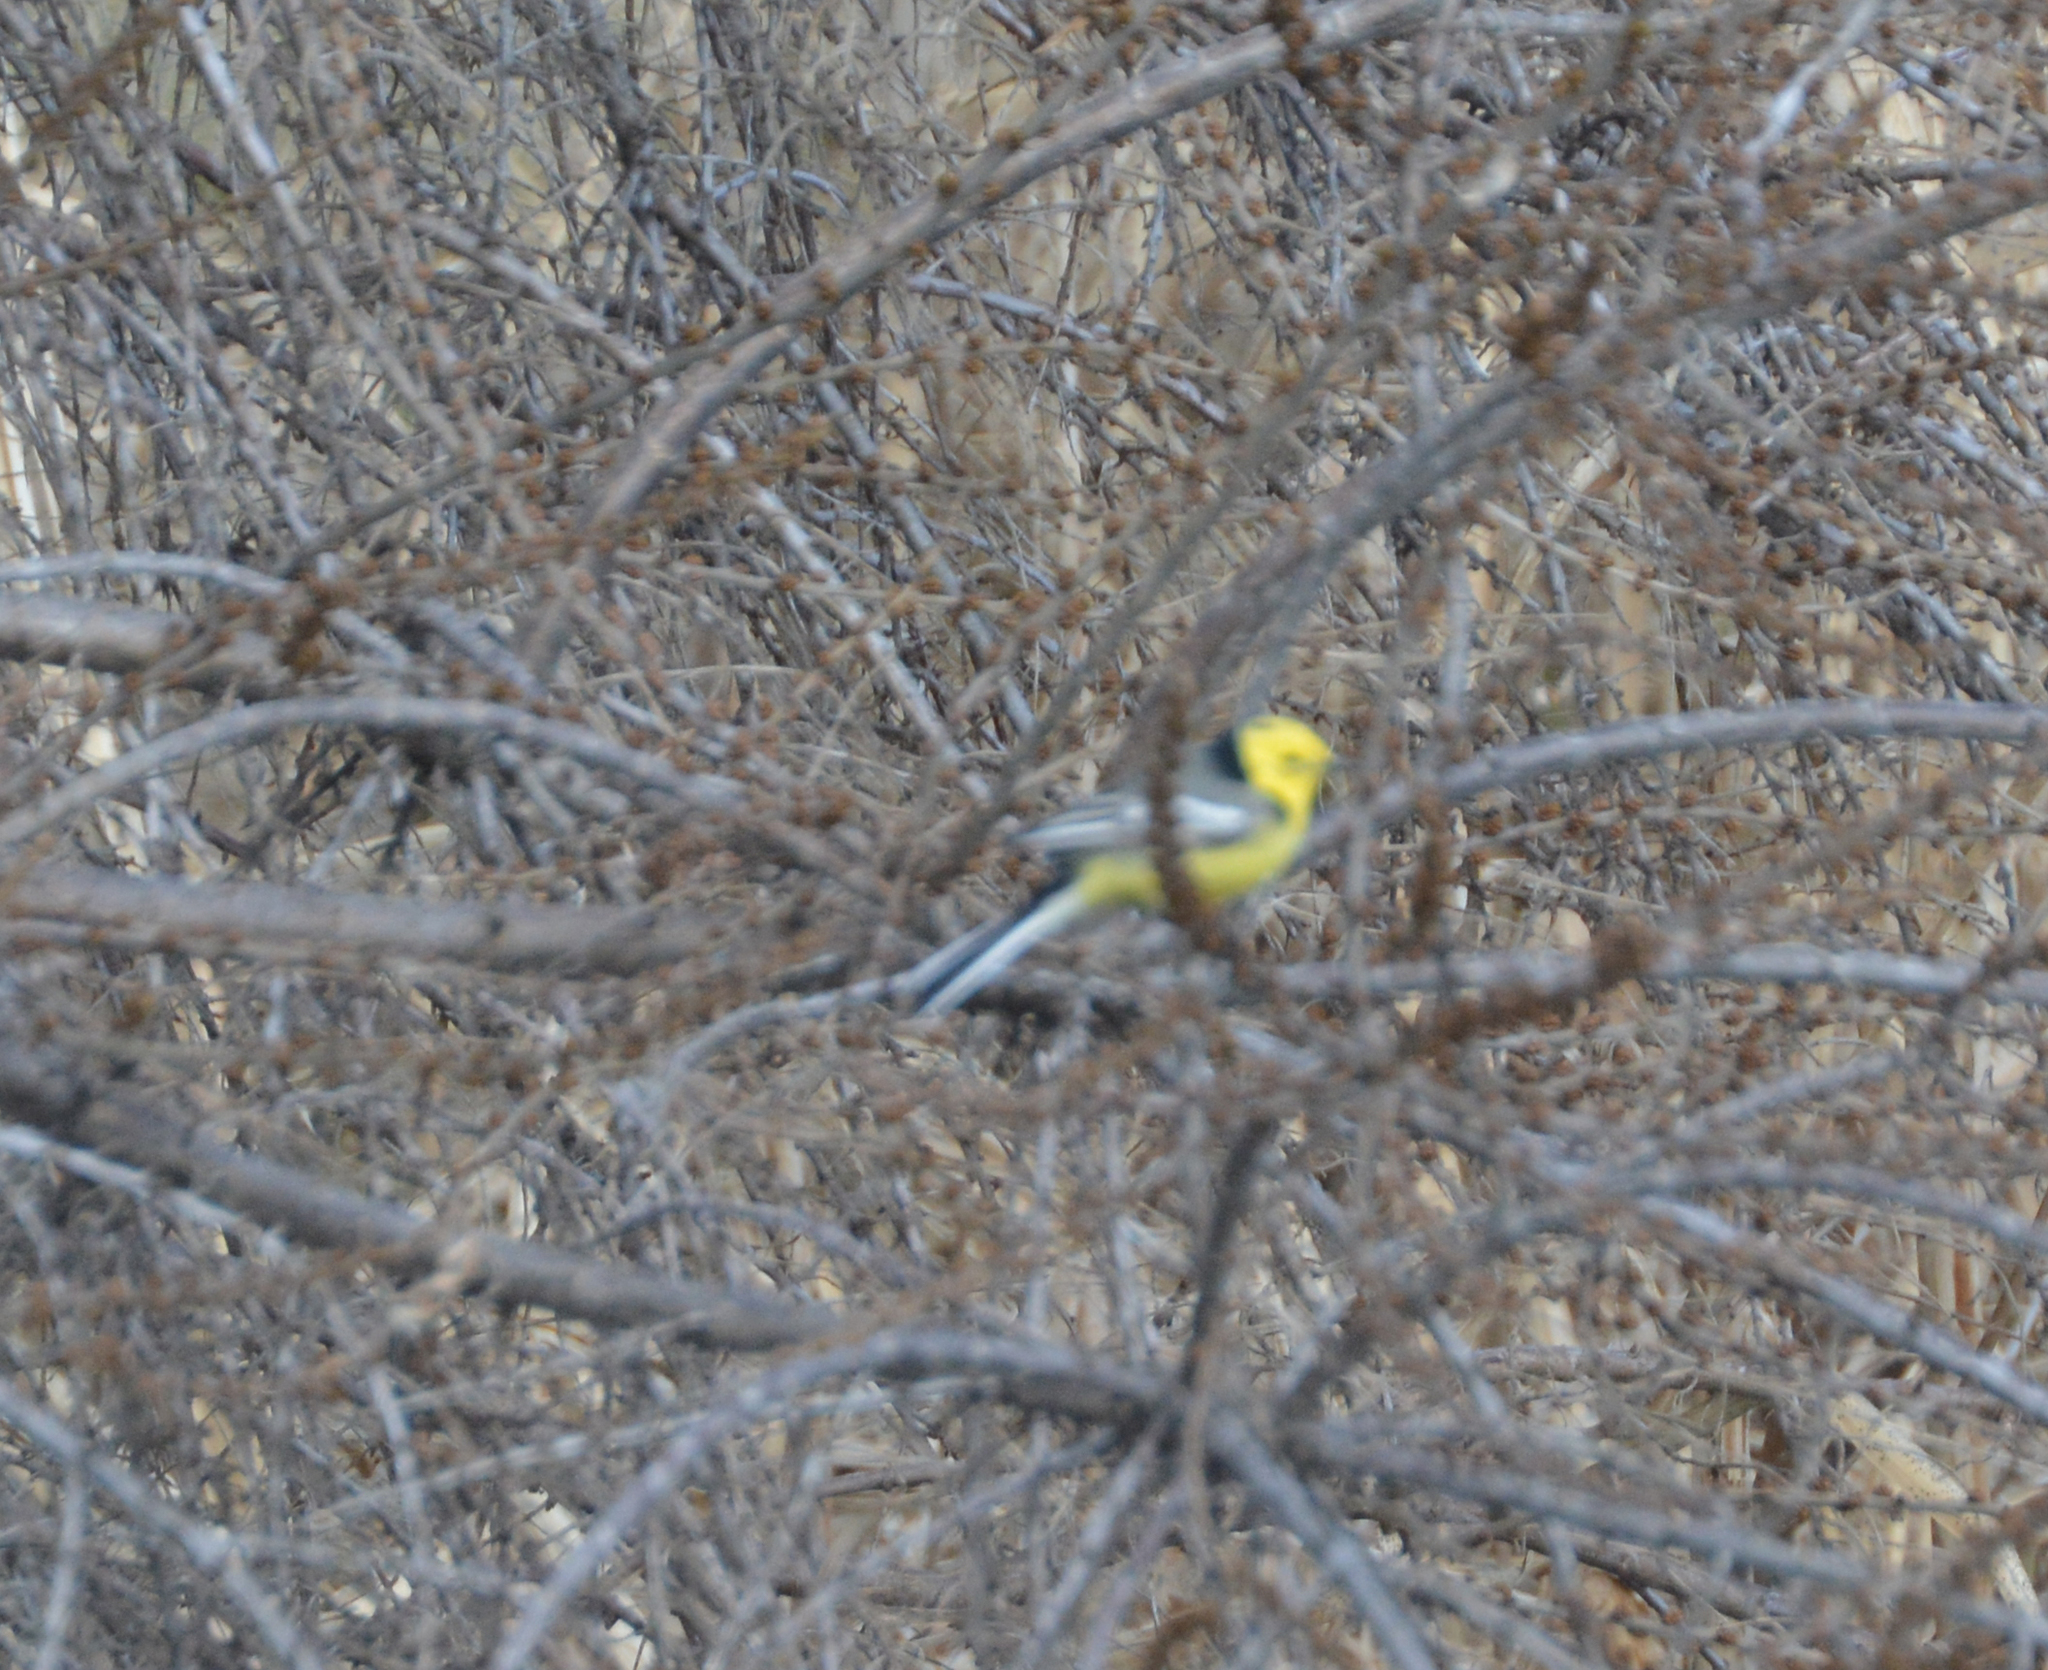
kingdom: Animalia
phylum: Chordata
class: Aves
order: Passeriformes
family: Motacillidae
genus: Motacilla
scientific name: Motacilla citreola
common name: Citrine wagtail
